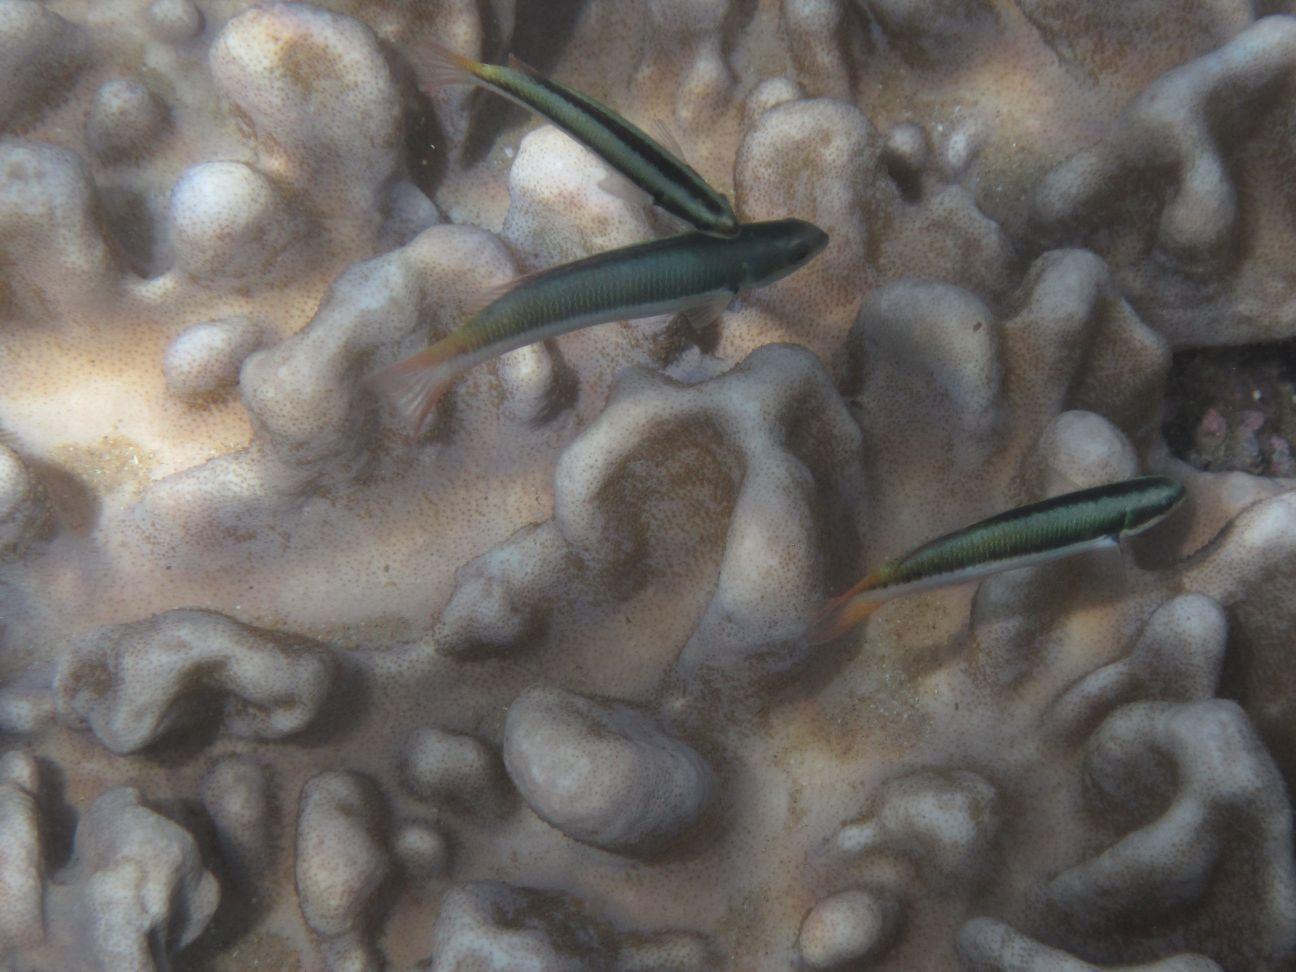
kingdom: Animalia
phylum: Chordata
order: Perciformes
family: Labridae
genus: Thalassoma
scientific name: Thalassoma amblycephalum
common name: Bluehead wrasse
